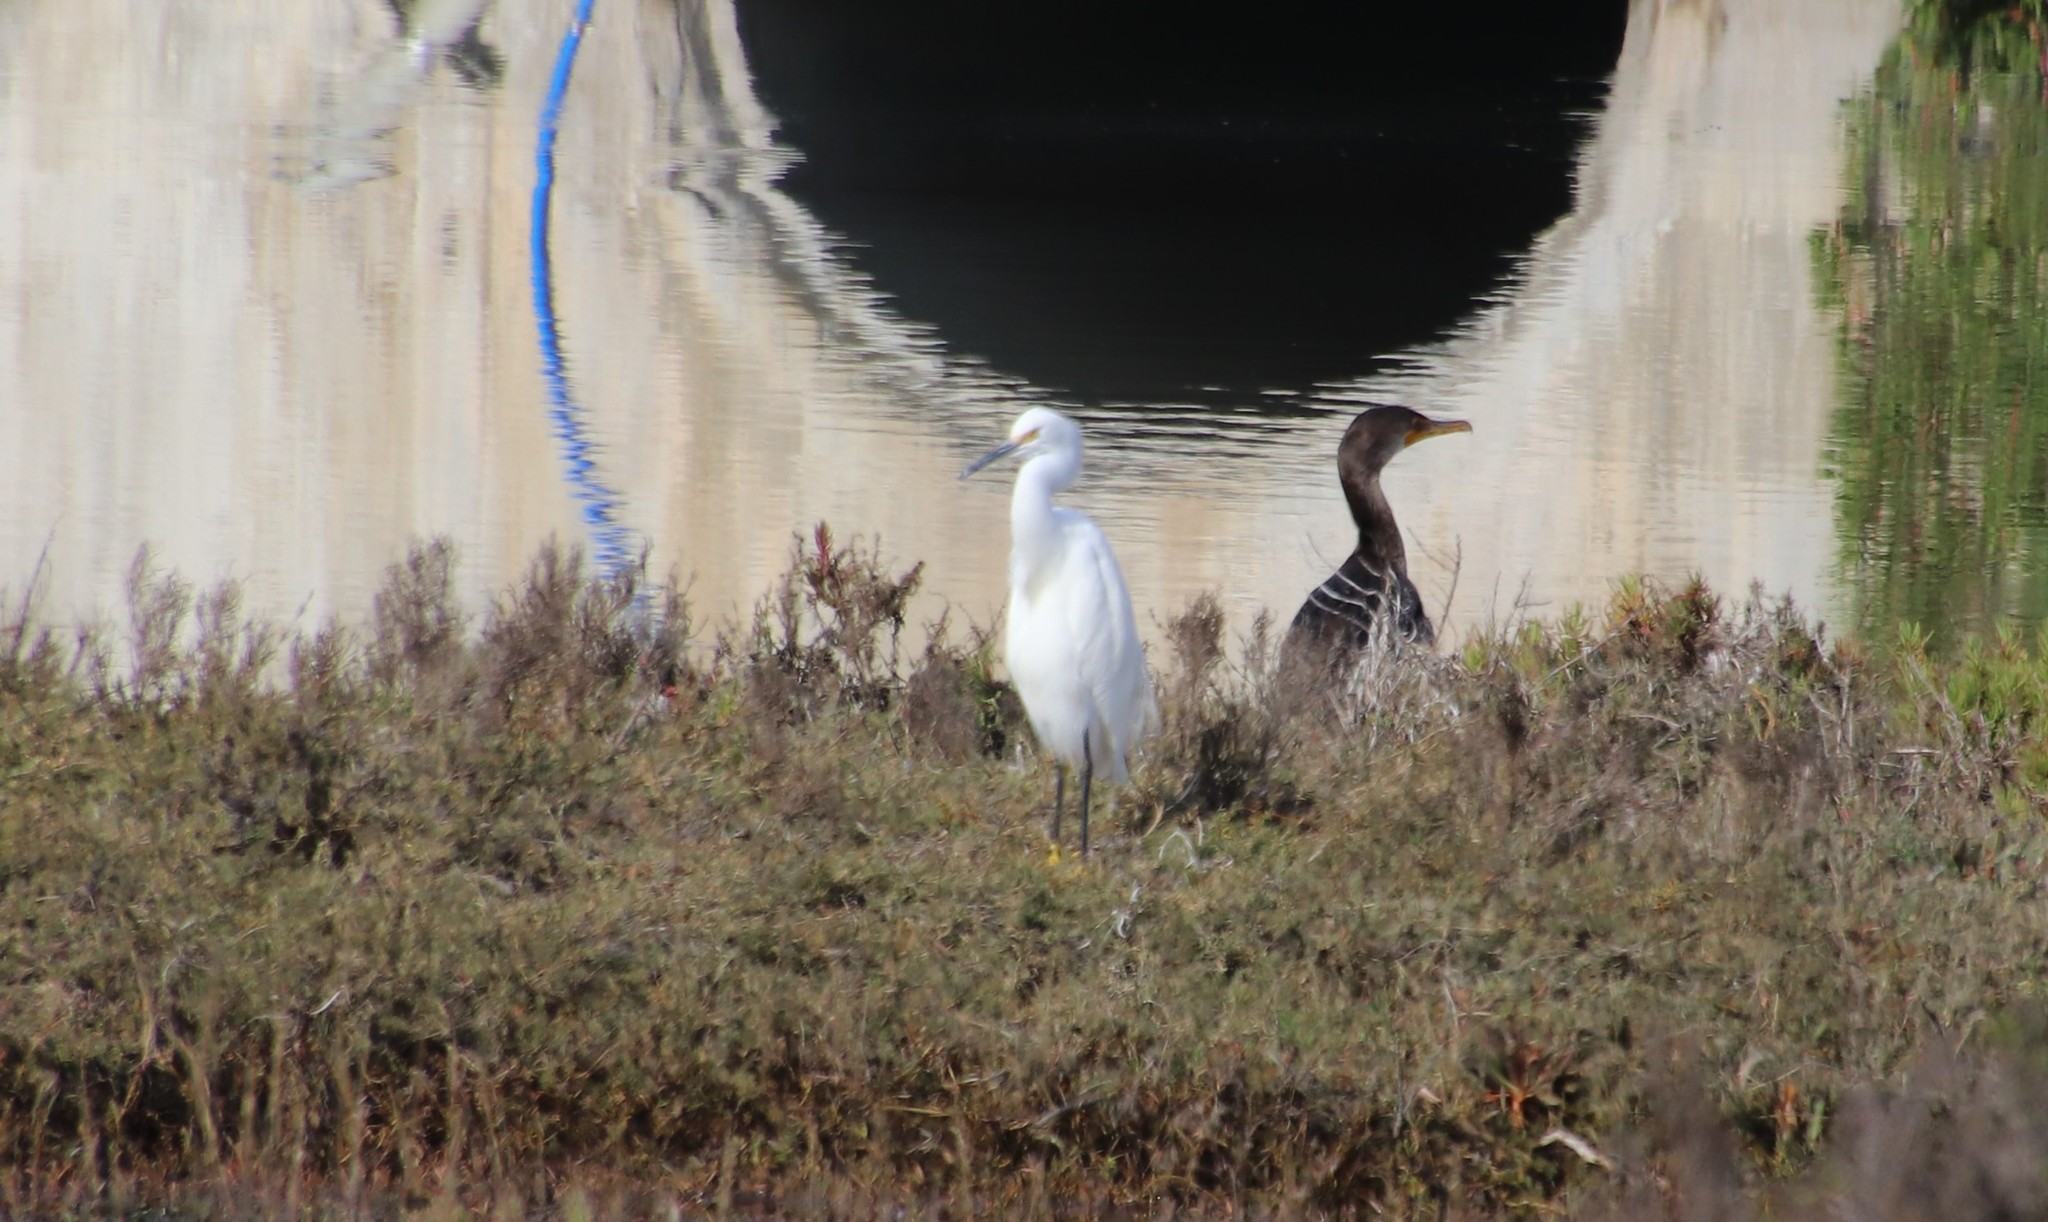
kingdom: Animalia
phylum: Chordata
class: Aves
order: Pelecaniformes
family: Ardeidae
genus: Egretta
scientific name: Egretta thula
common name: Snowy egret
